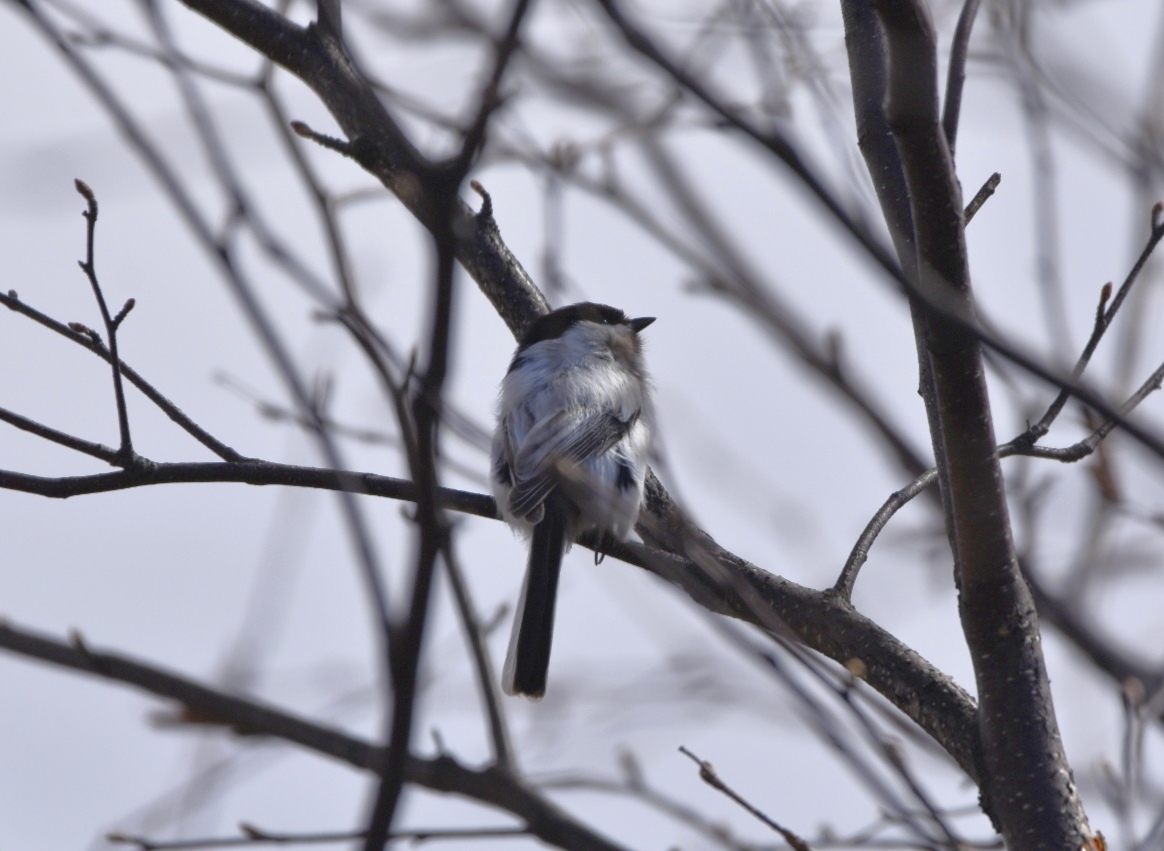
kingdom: Animalia
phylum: Chordata
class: Aves
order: Passeriformes
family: Paridae
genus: Poecile
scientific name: Poecile montanus
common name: Willow tit
